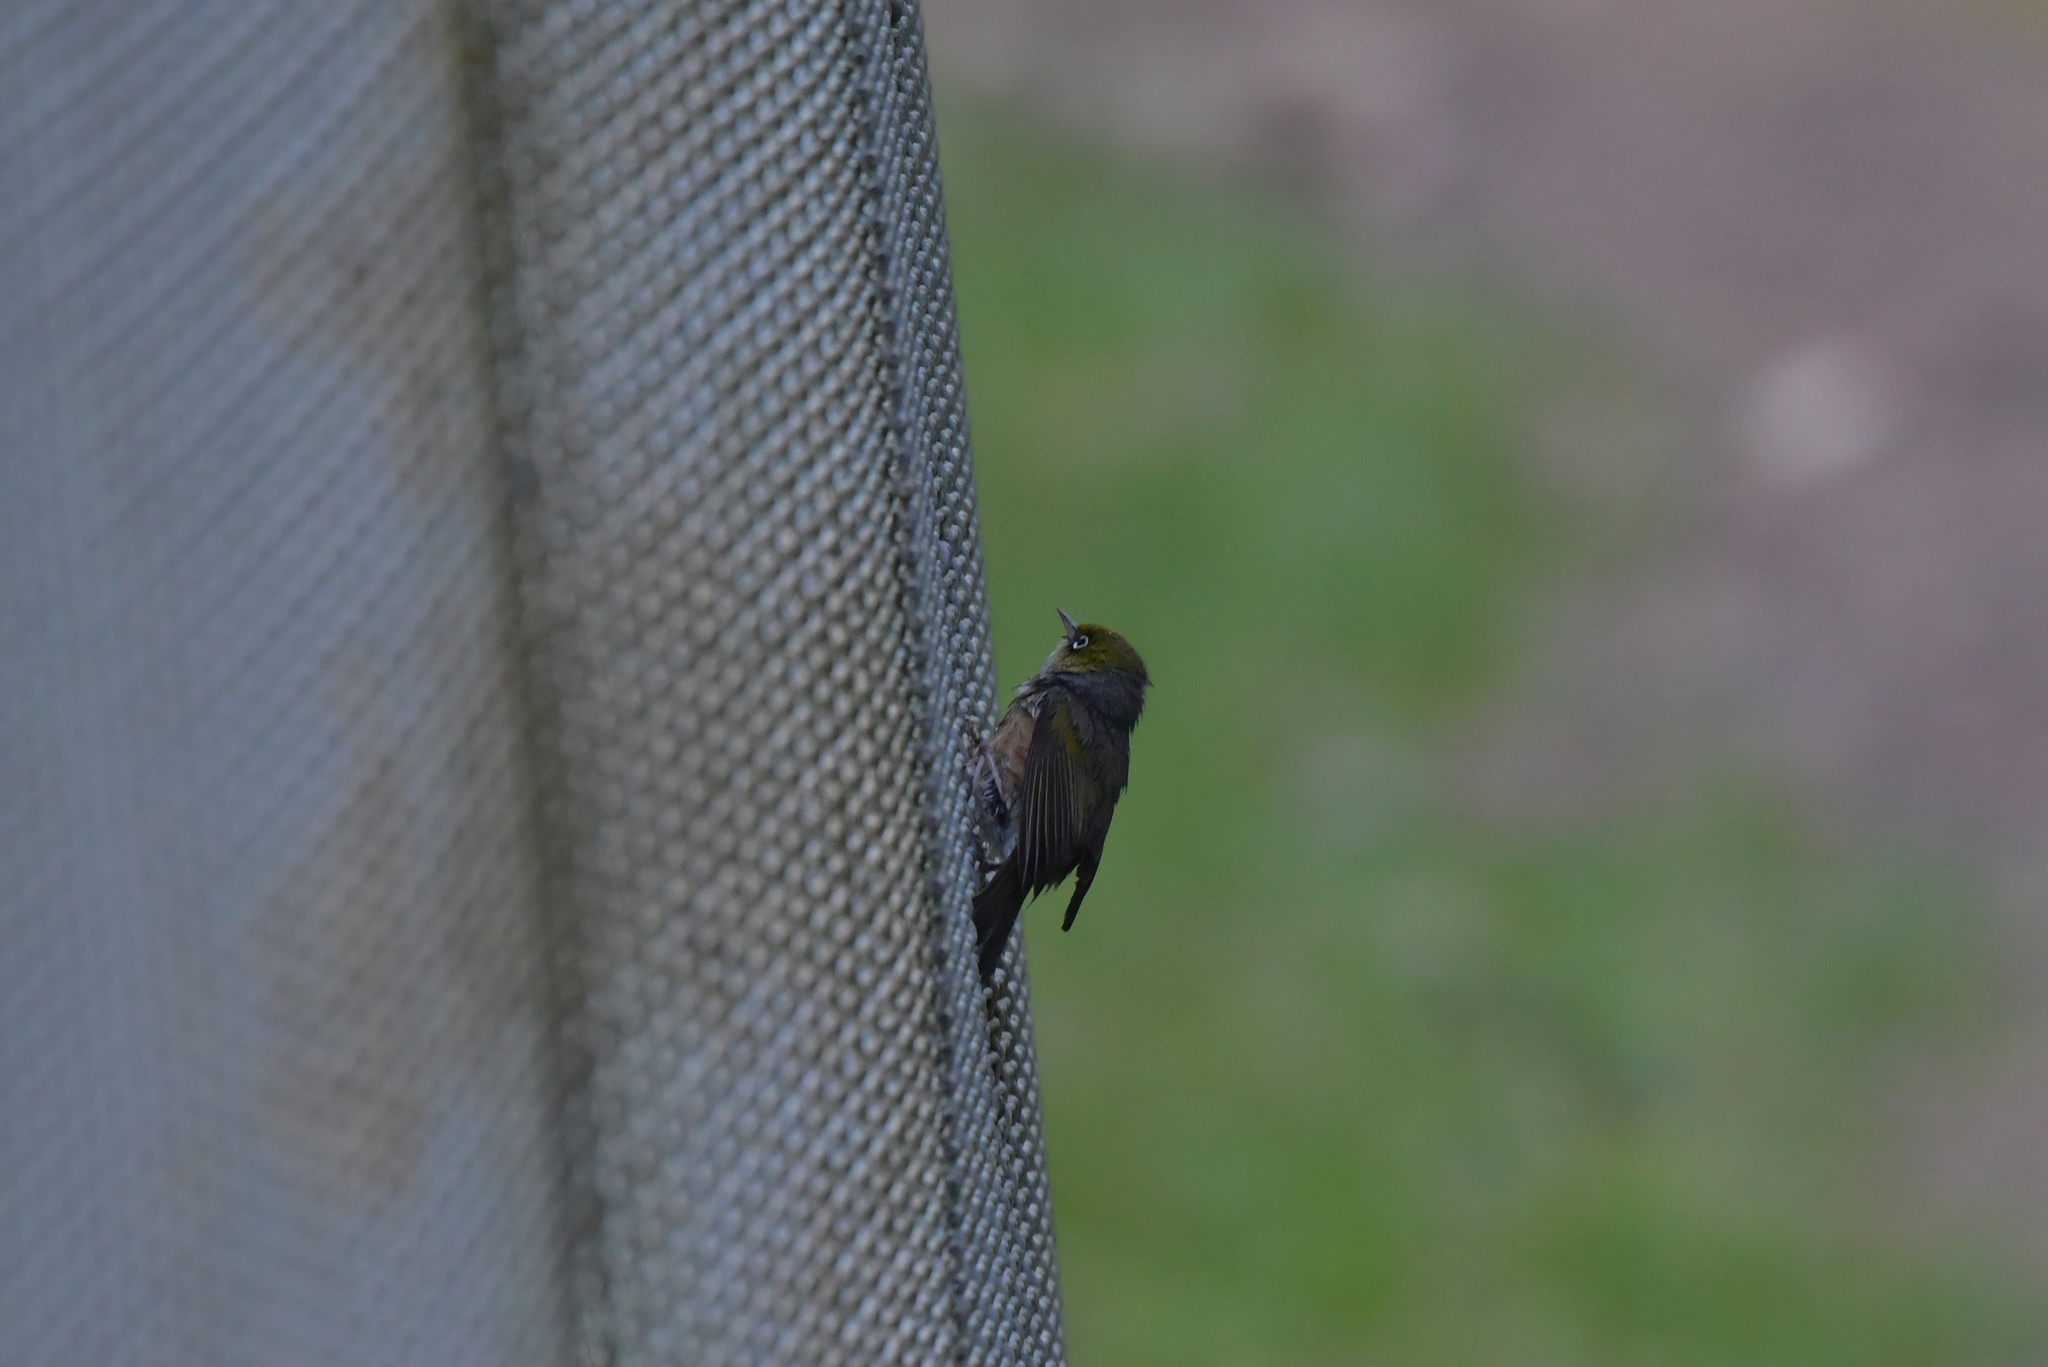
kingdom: Animalia
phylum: Chordata
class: Aves
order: Passeriformes
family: Zosteropidae
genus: Zosterops
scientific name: Zosterops lateralis
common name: Silvereye
